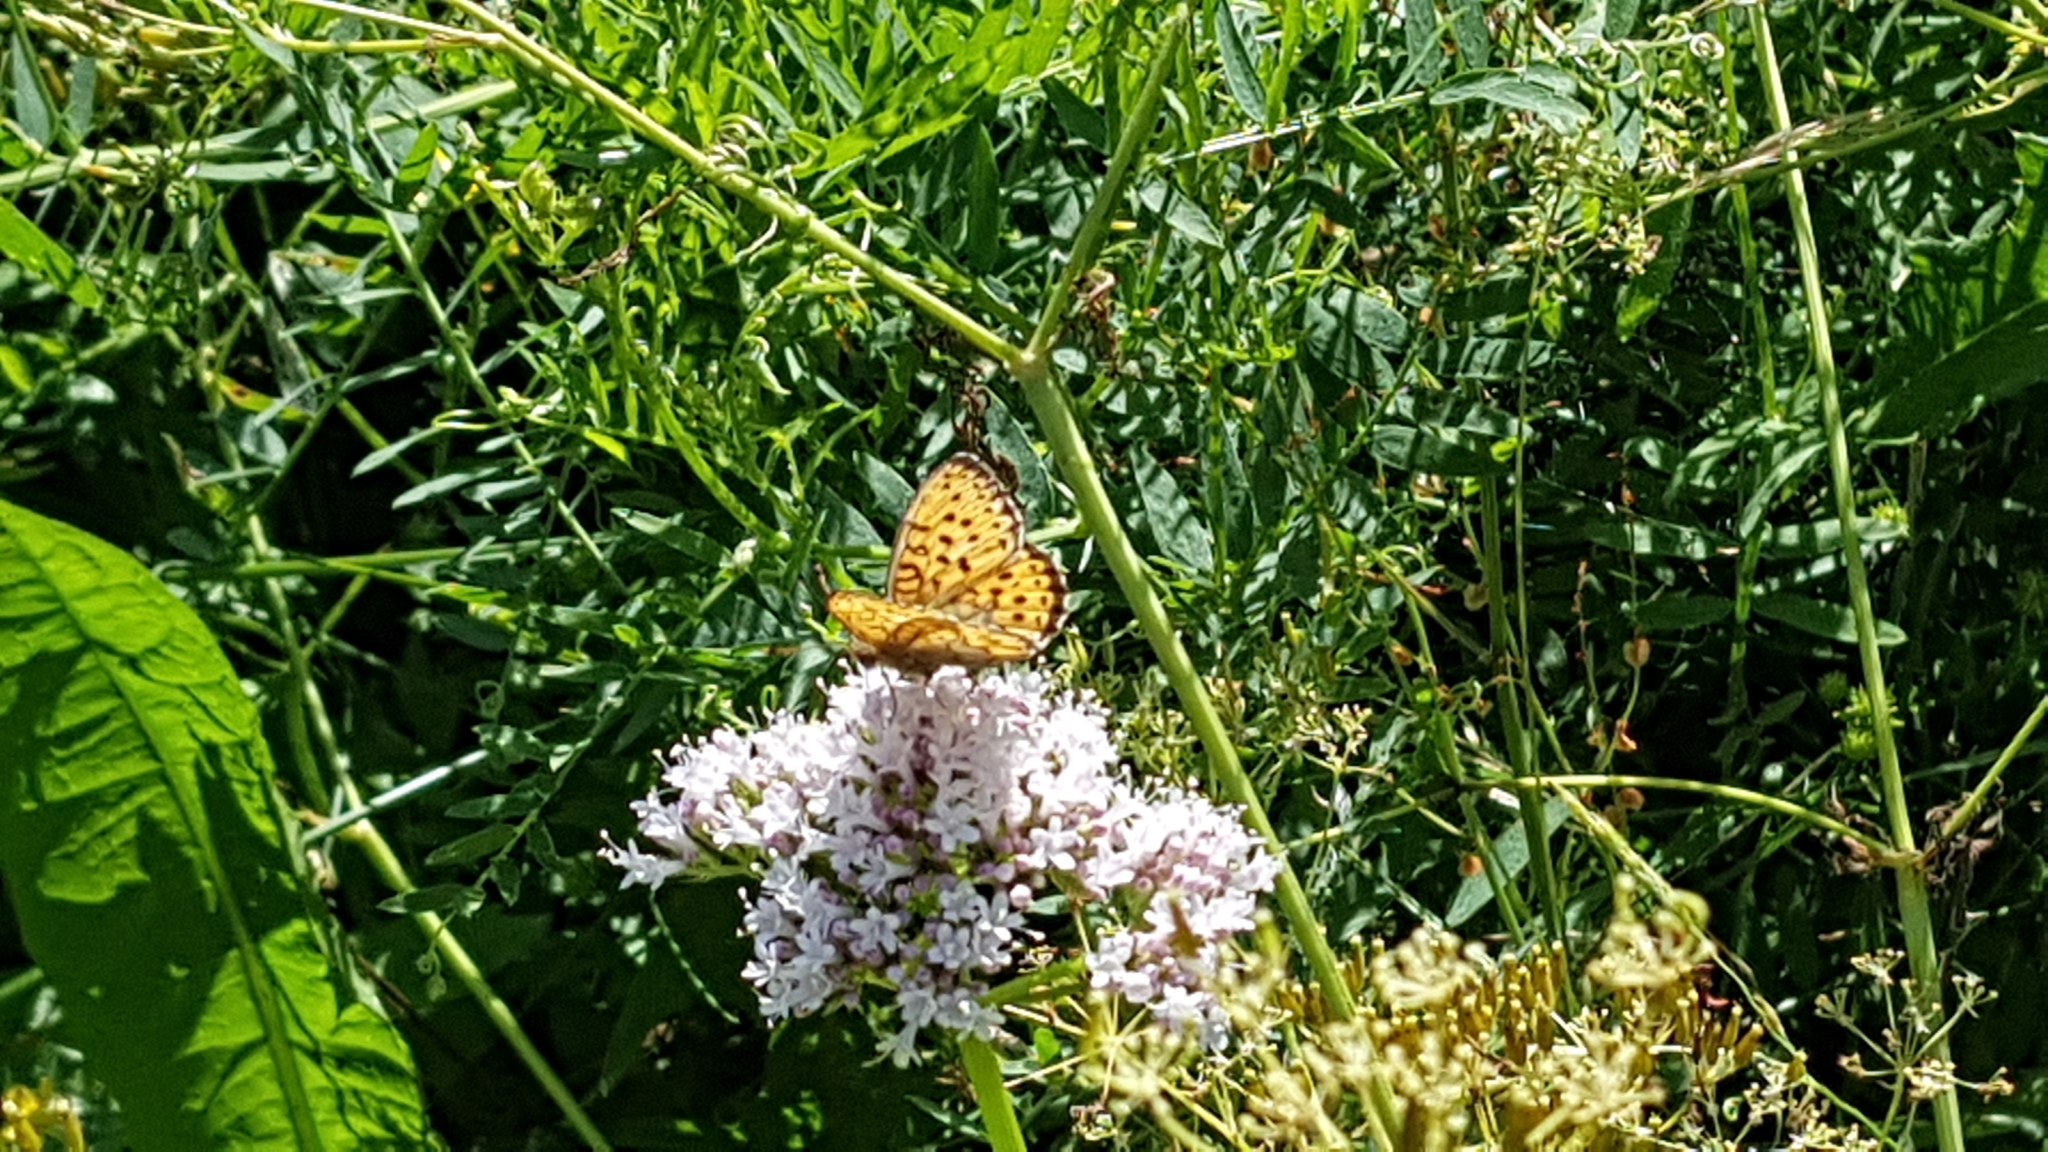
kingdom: Animalia
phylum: Arthropoda
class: Insecta
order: Lepidoptera
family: Nymphalidae
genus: Brenthis
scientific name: Brenthis ino
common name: Lesser marbled fritillary
